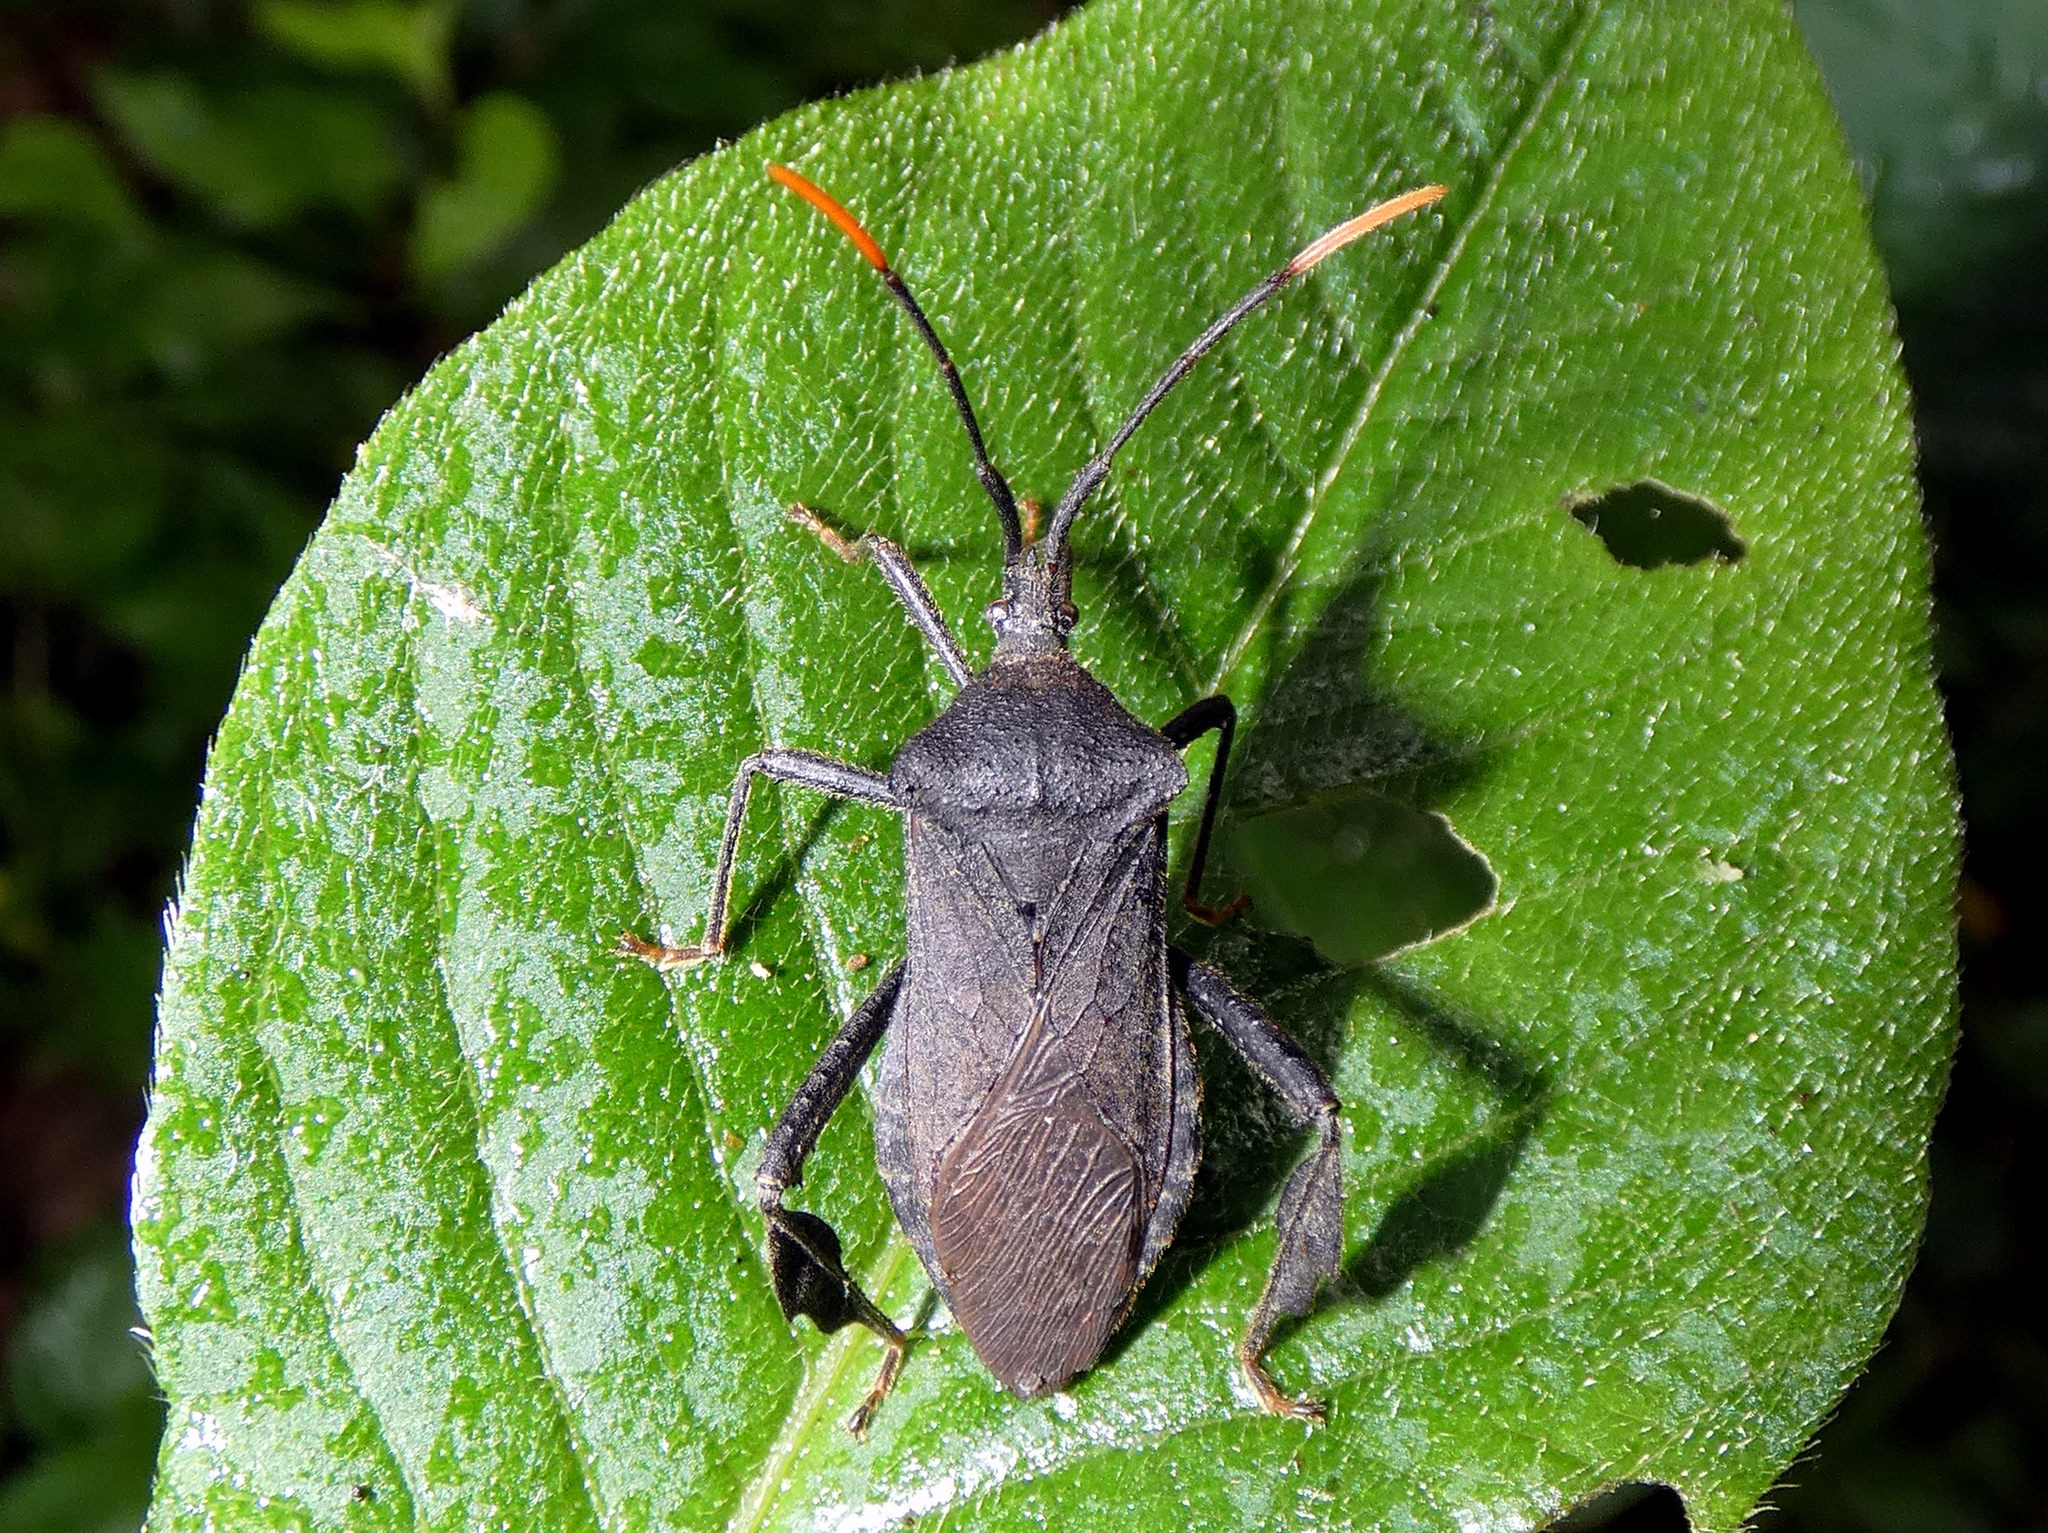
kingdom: Animalia
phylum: Arthropoda
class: Insecta
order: Hemiptera
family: Coreidae
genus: Acanthocephala
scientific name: Acanthocephala terminalis
